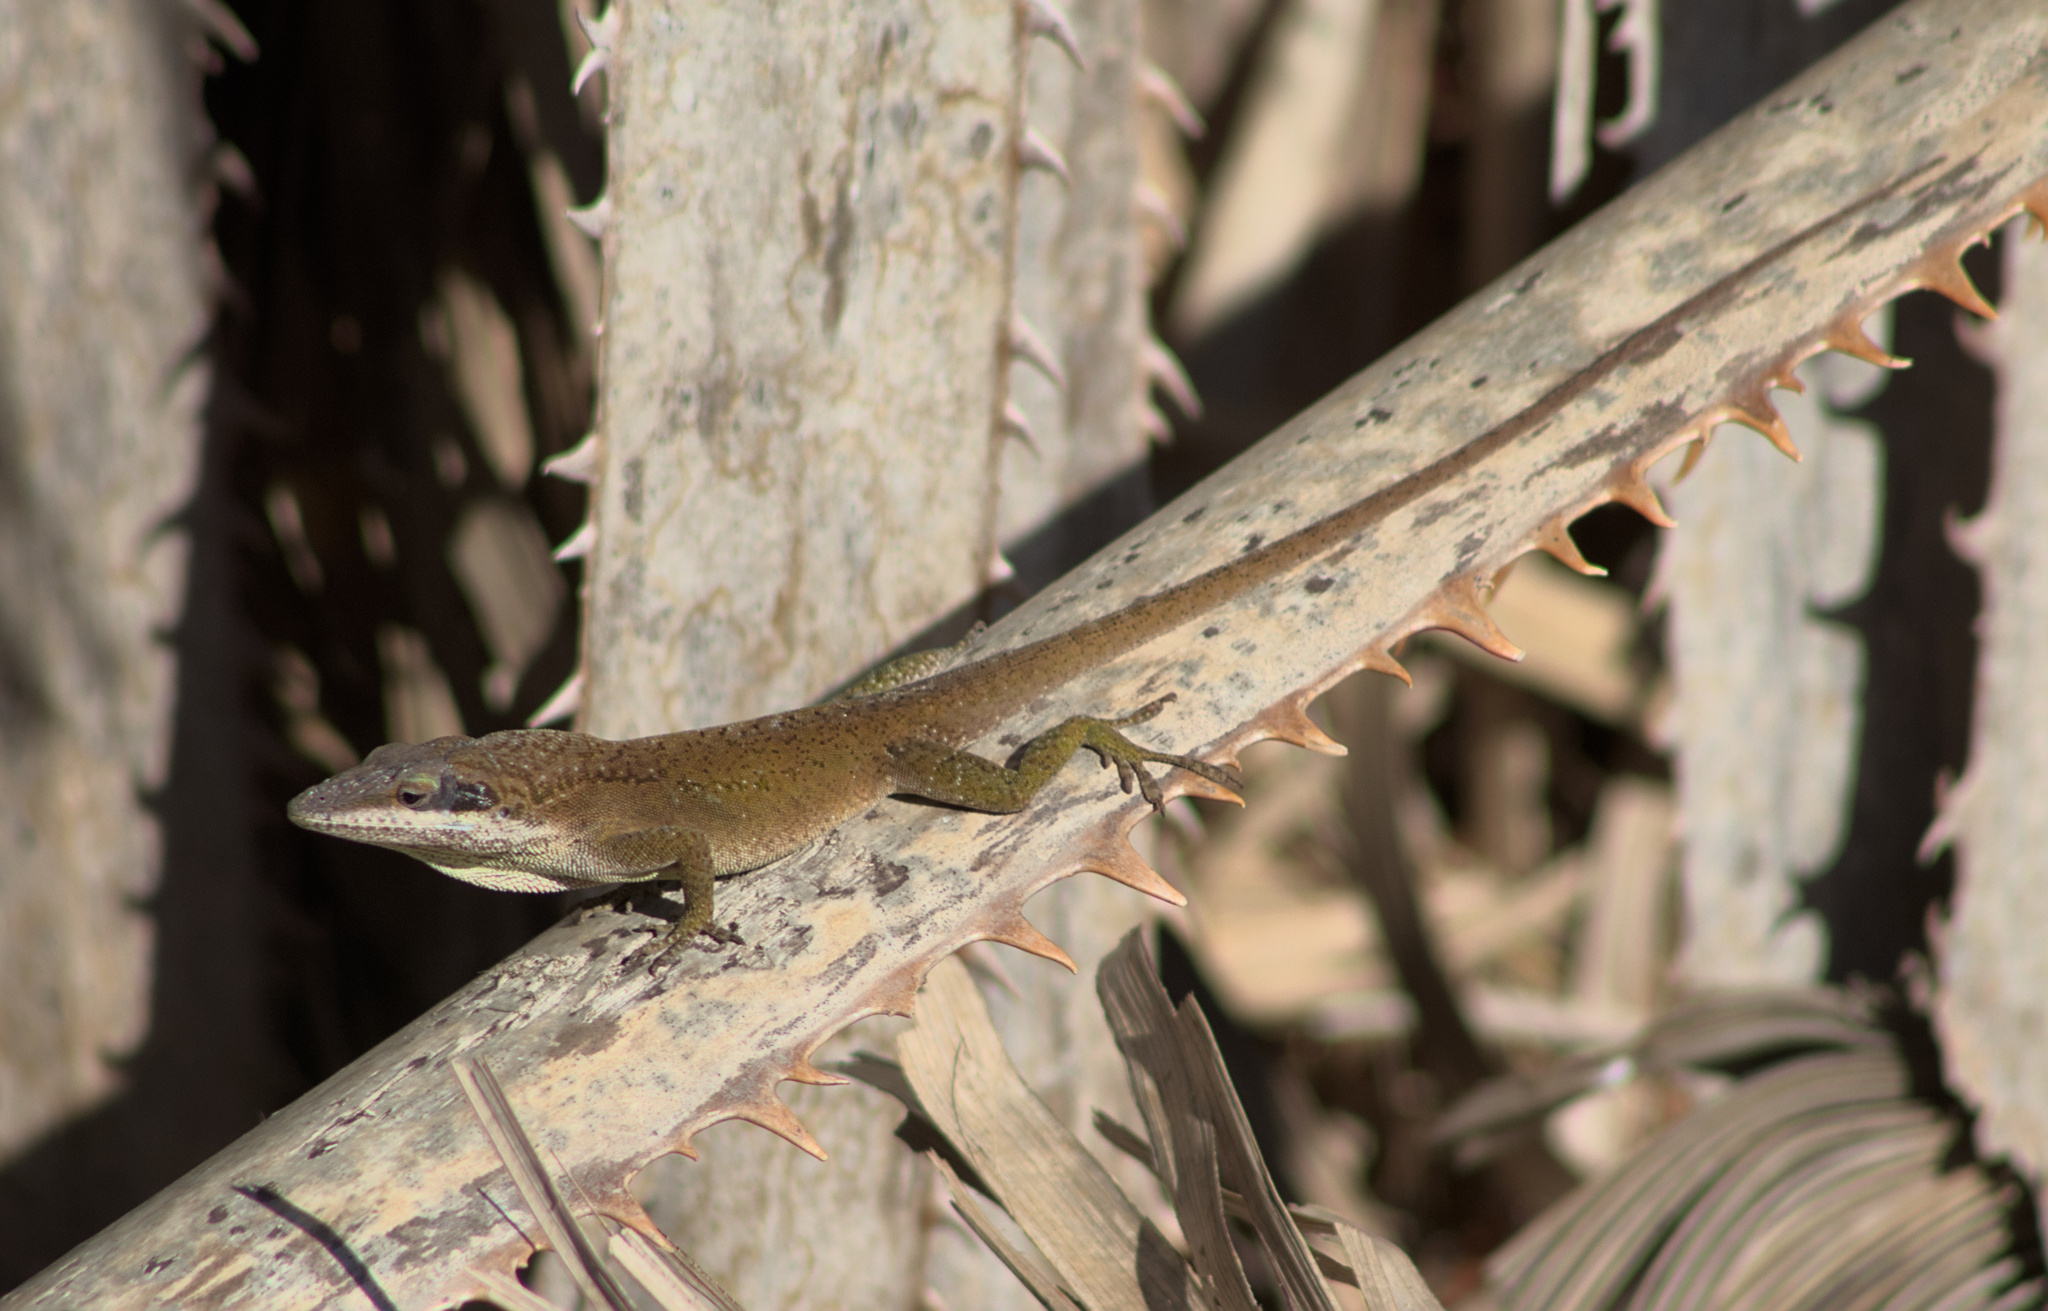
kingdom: Animalia
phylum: Chordata
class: Squamata
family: Dactyloidae
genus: Anolis
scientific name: Anolis carolinensis
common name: Green anole
